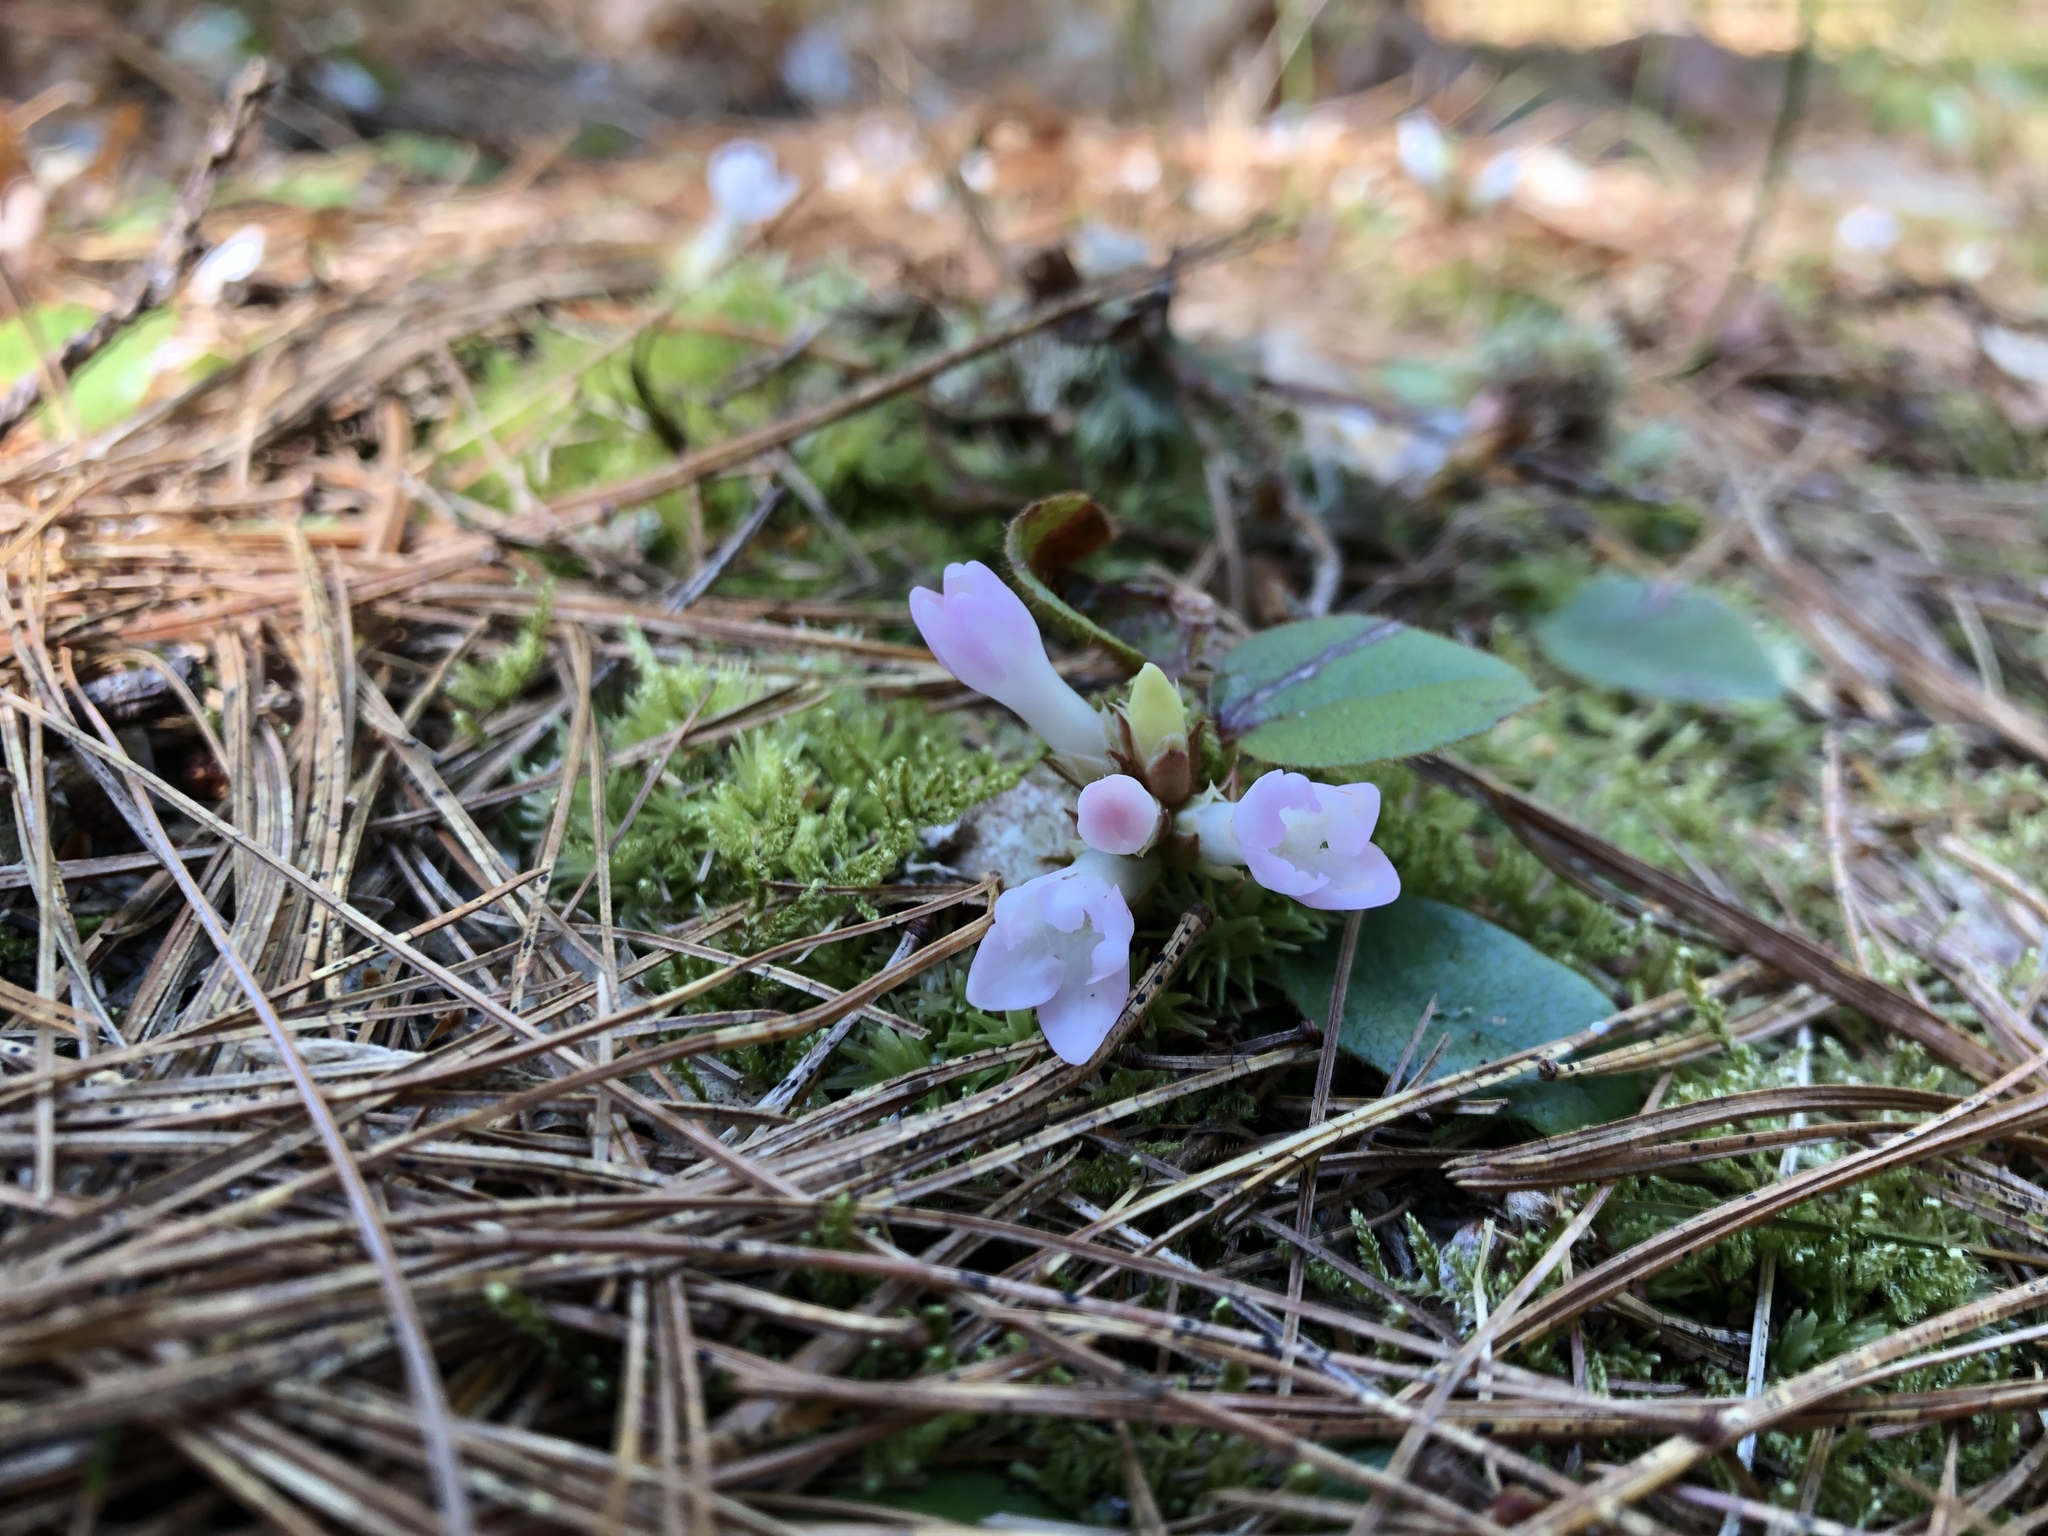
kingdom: Plantae
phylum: Tracheophyta
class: Magnoliopsida
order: Ericales
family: Ericaceae
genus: Epigaea
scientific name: Epigaea repens
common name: Gravelroot
